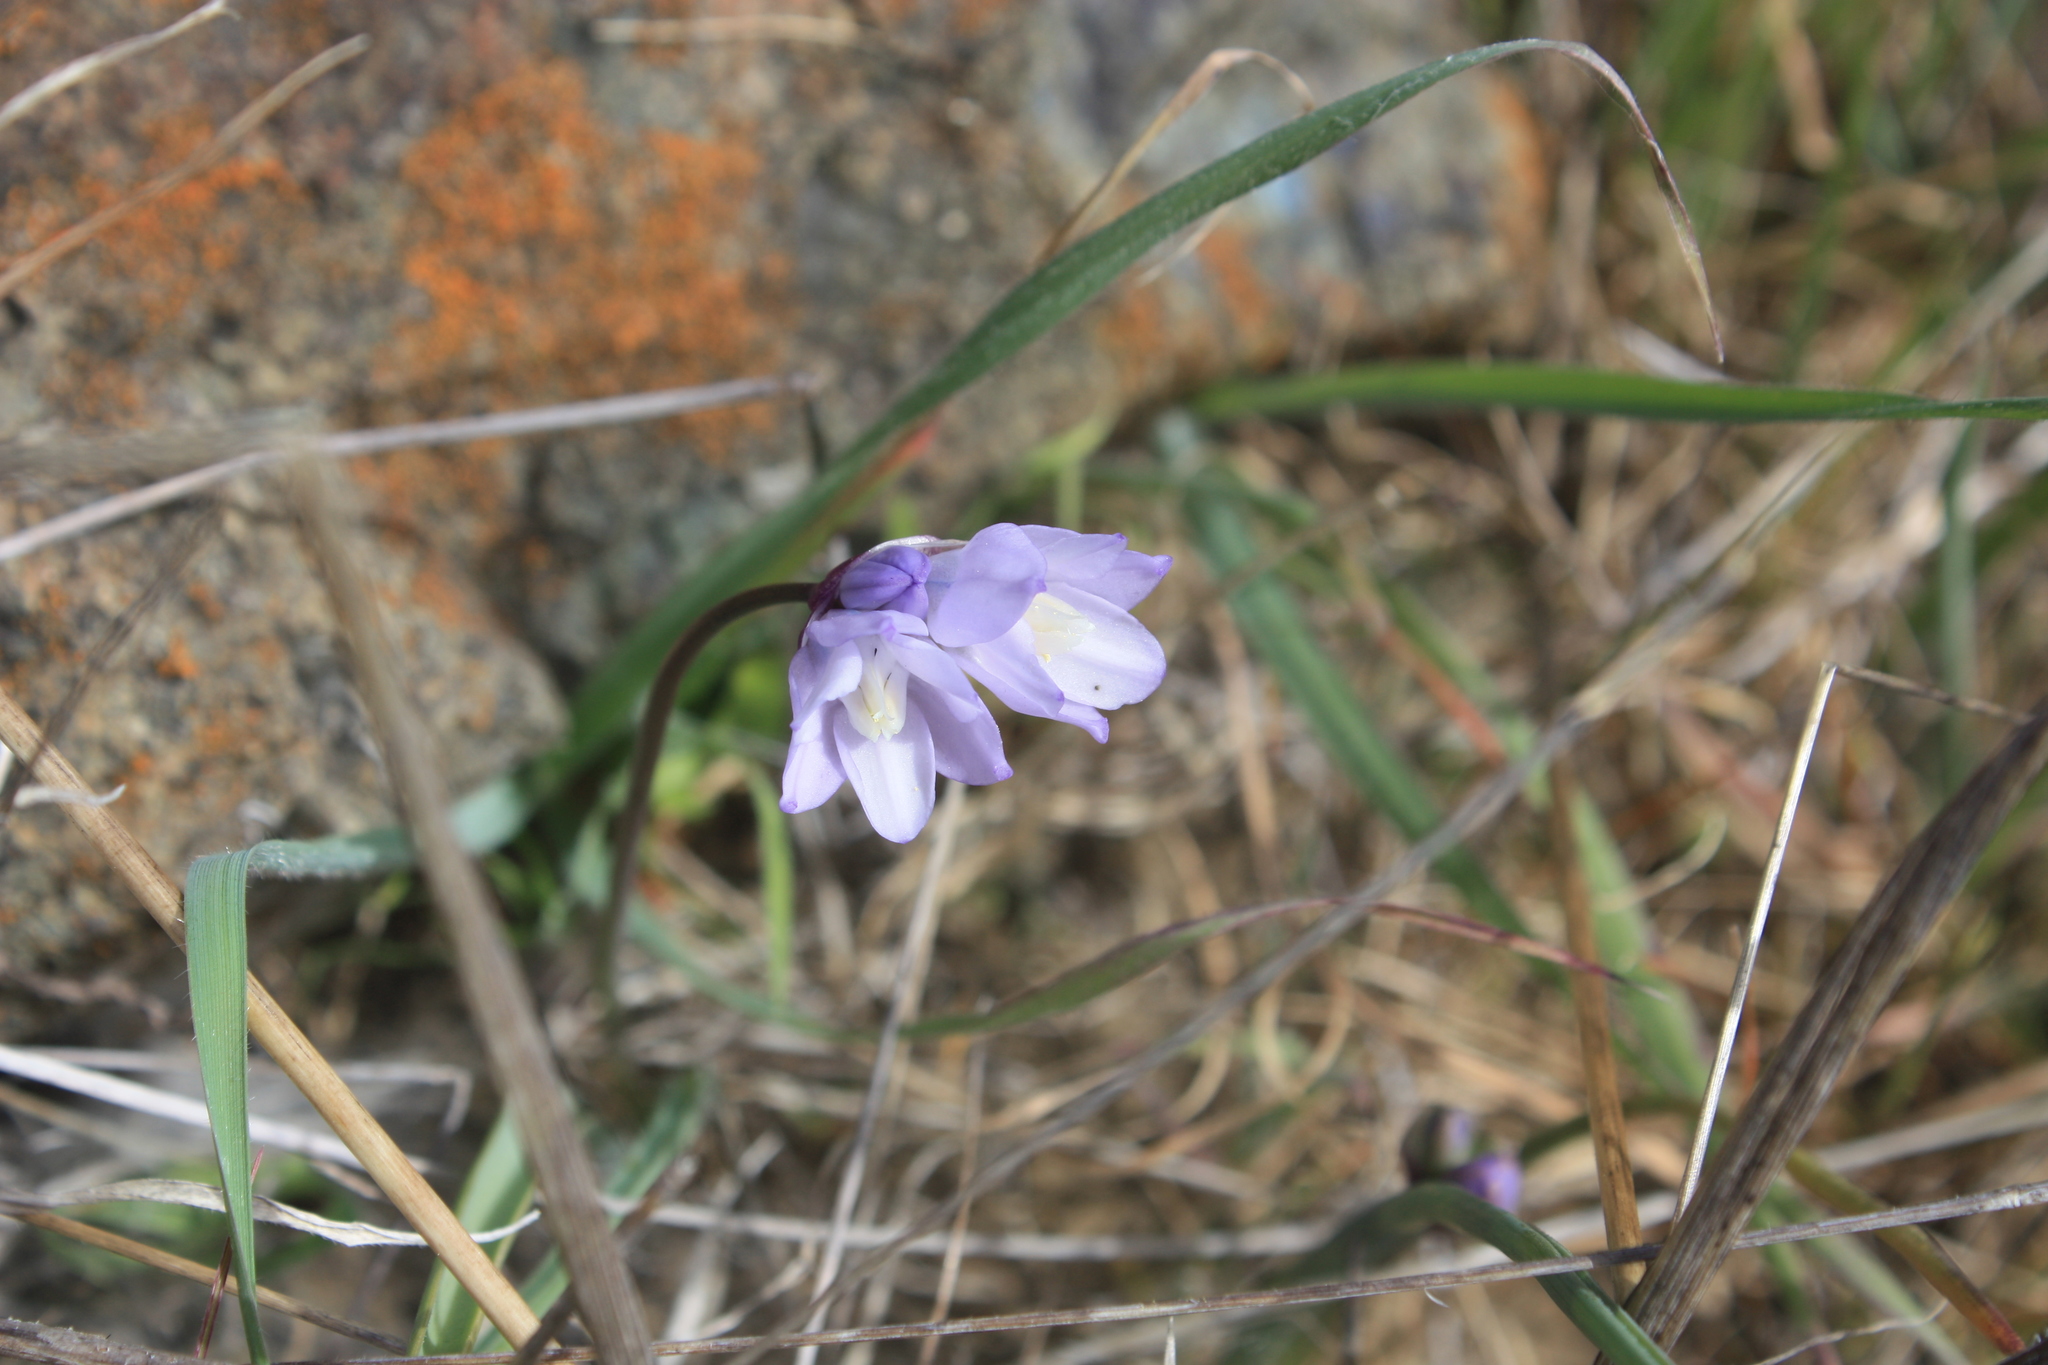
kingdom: Plantae
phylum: Tracheophyta
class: Liliopsida
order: Asparagales
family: Asparagaceae
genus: Dipterostemon
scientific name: Dipterostemon capitatus
